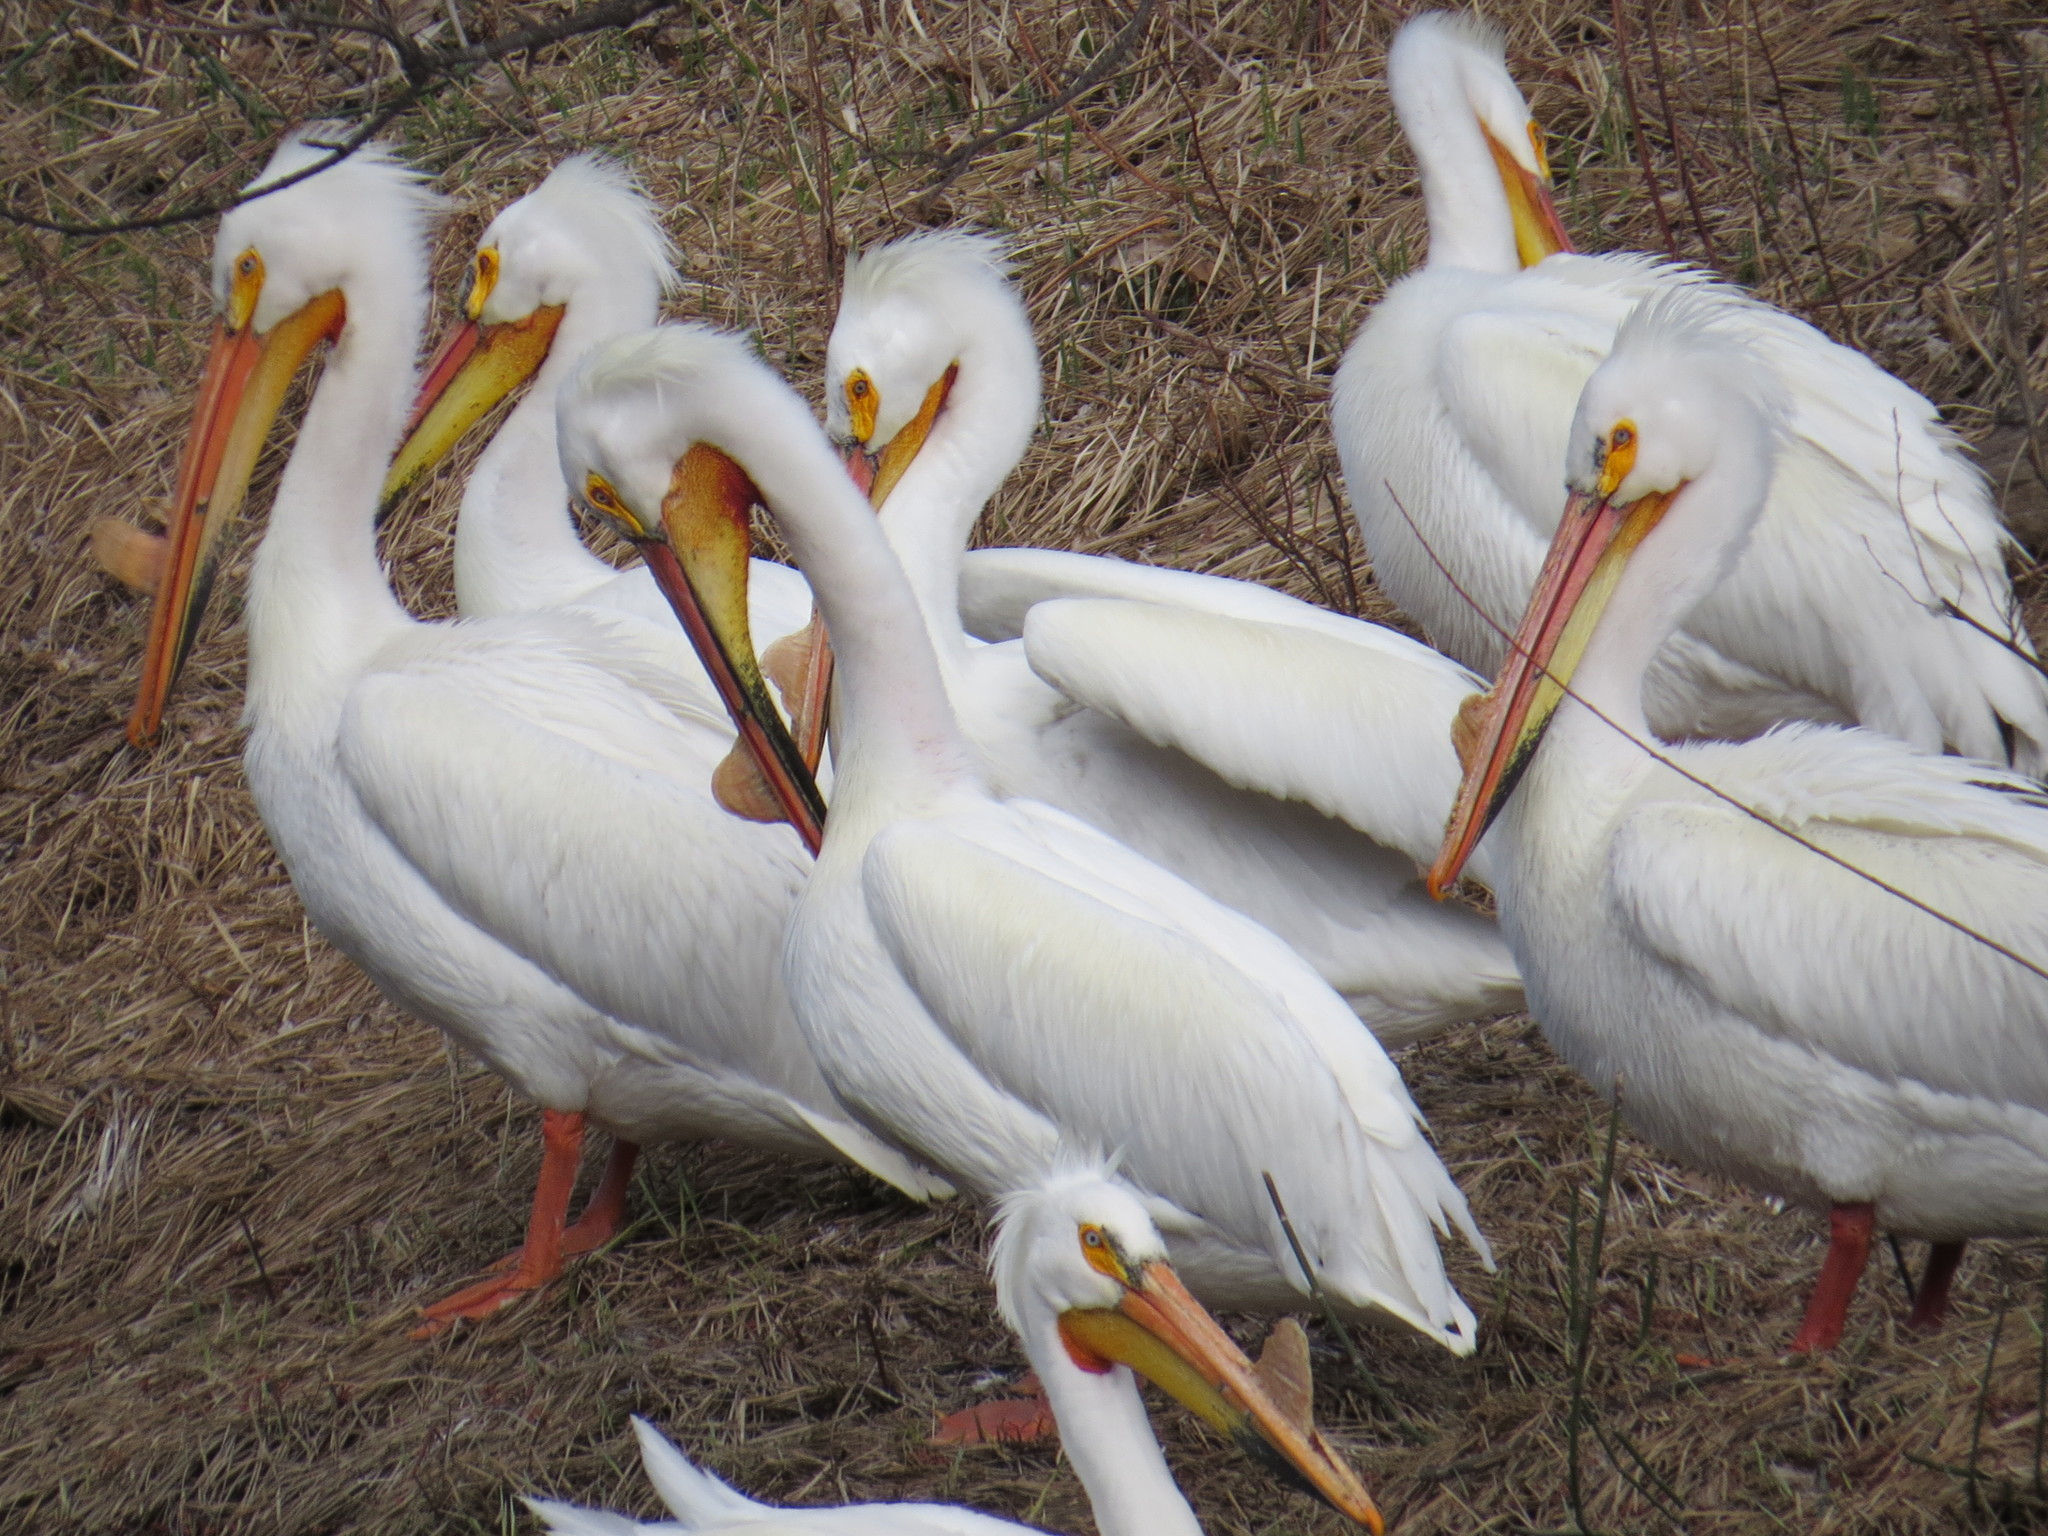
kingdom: Animalia
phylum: Chordata
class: Aves
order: Pelecaniformes
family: Pelecanidae
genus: Pelecanus
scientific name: Pelecanus erythrorhynchos
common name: American white pelican
